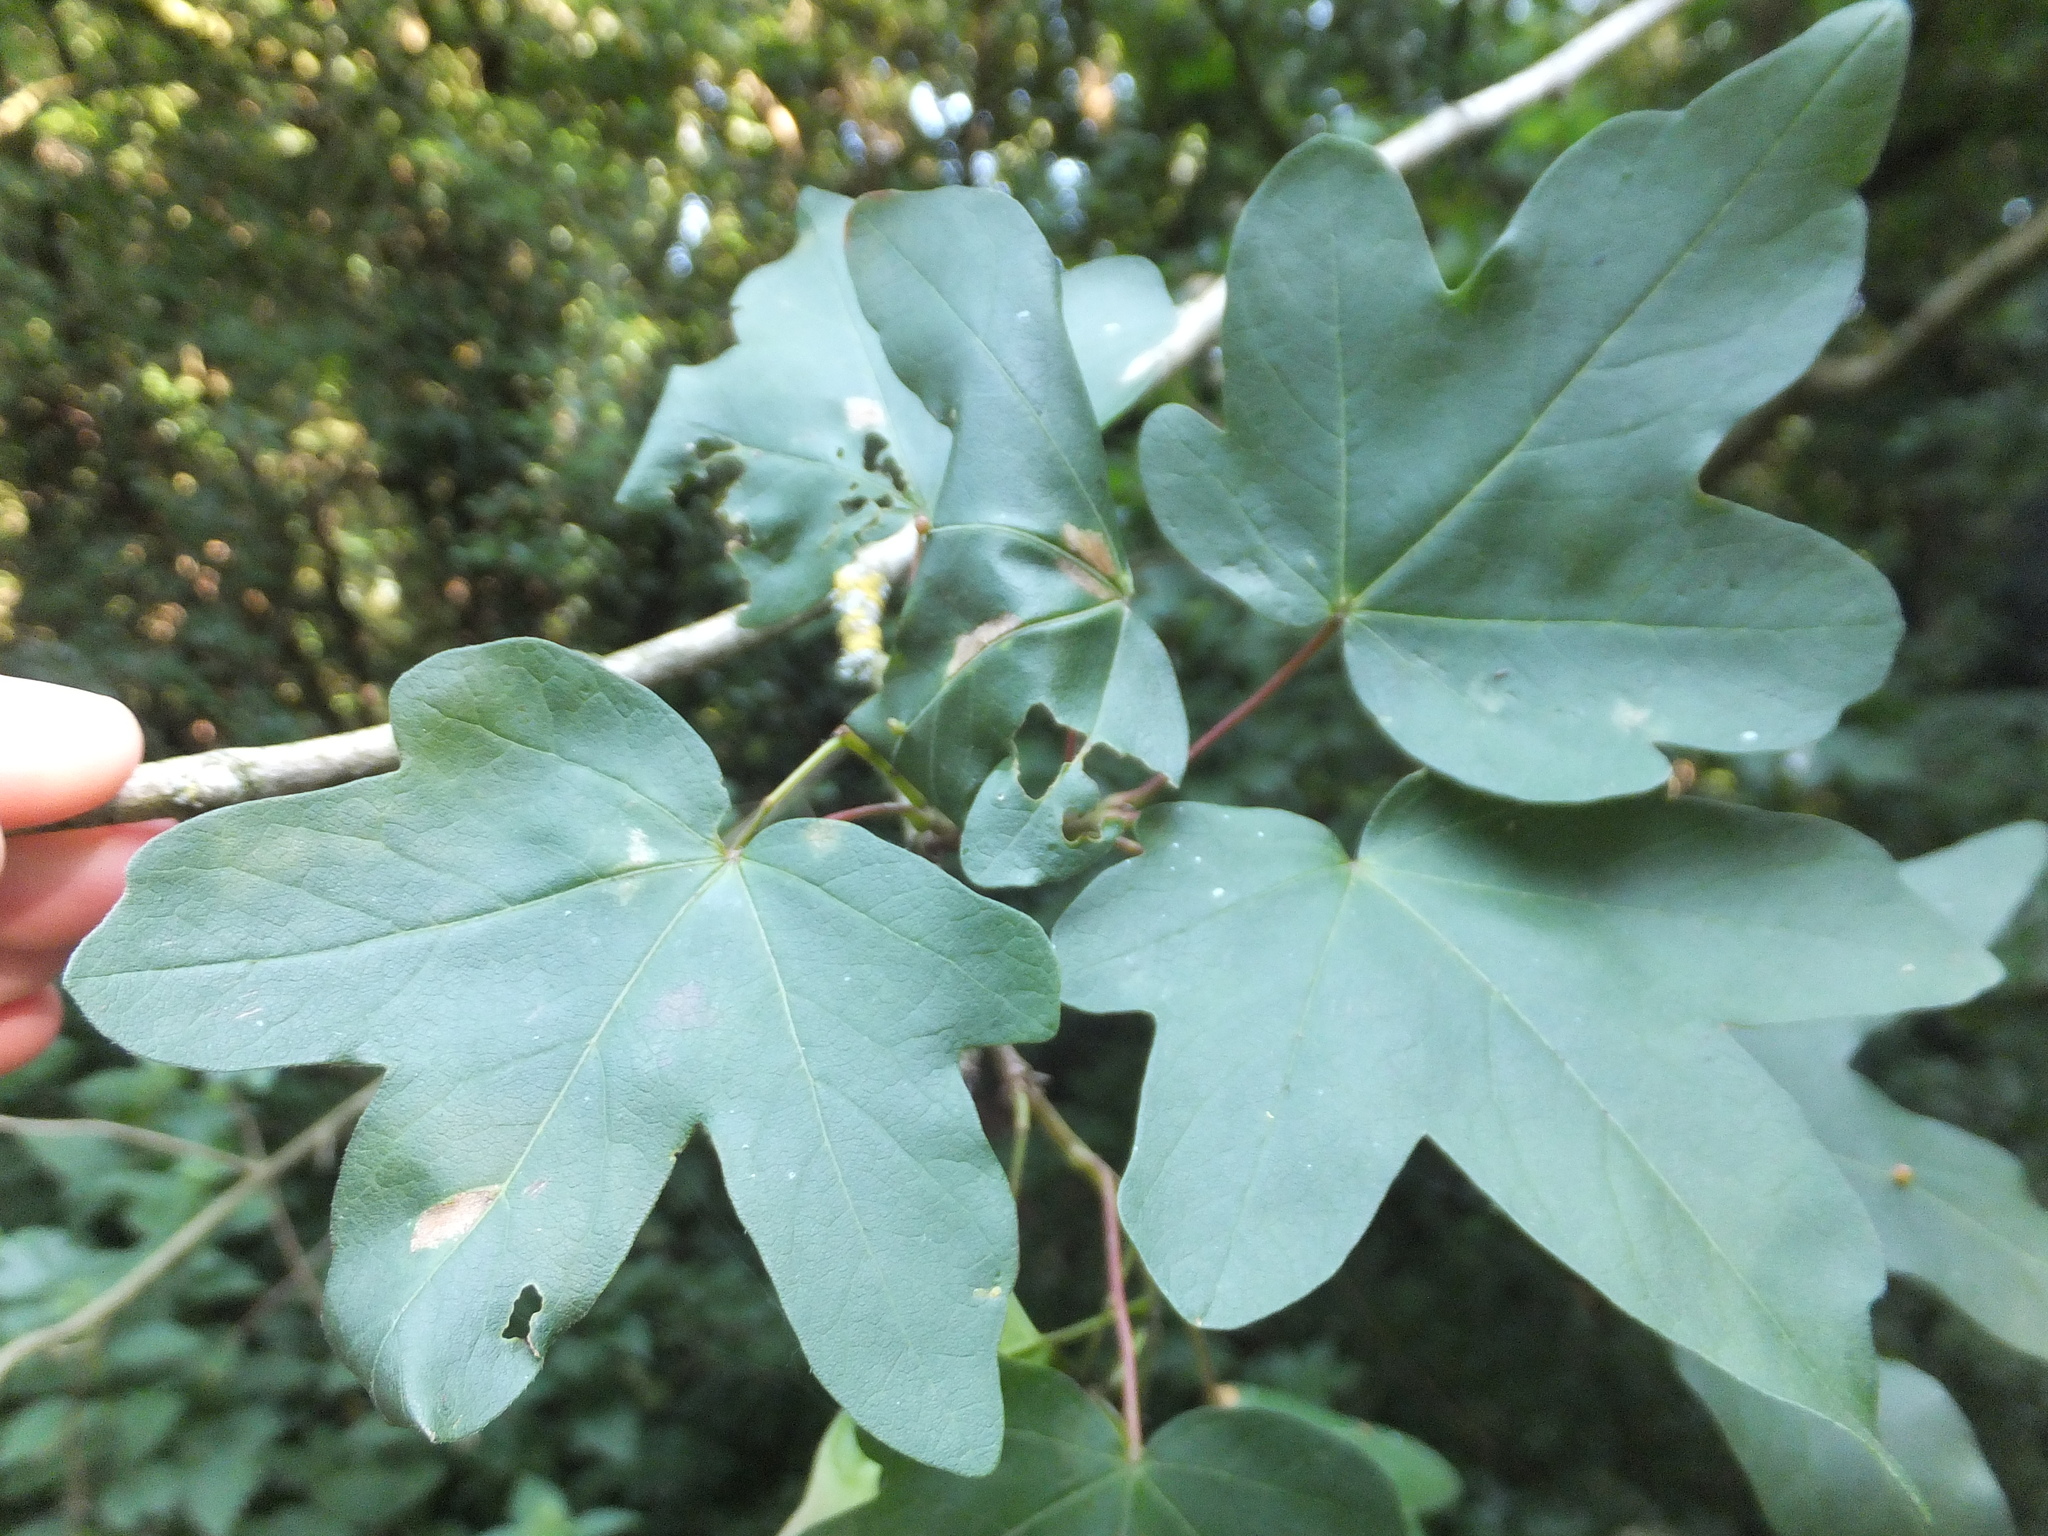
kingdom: Plantae
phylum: Tracheophyta
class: Magnoliopsida
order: Sapindales
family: Sapindaceae
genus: Acer
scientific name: Acer campestre
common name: Field maple
